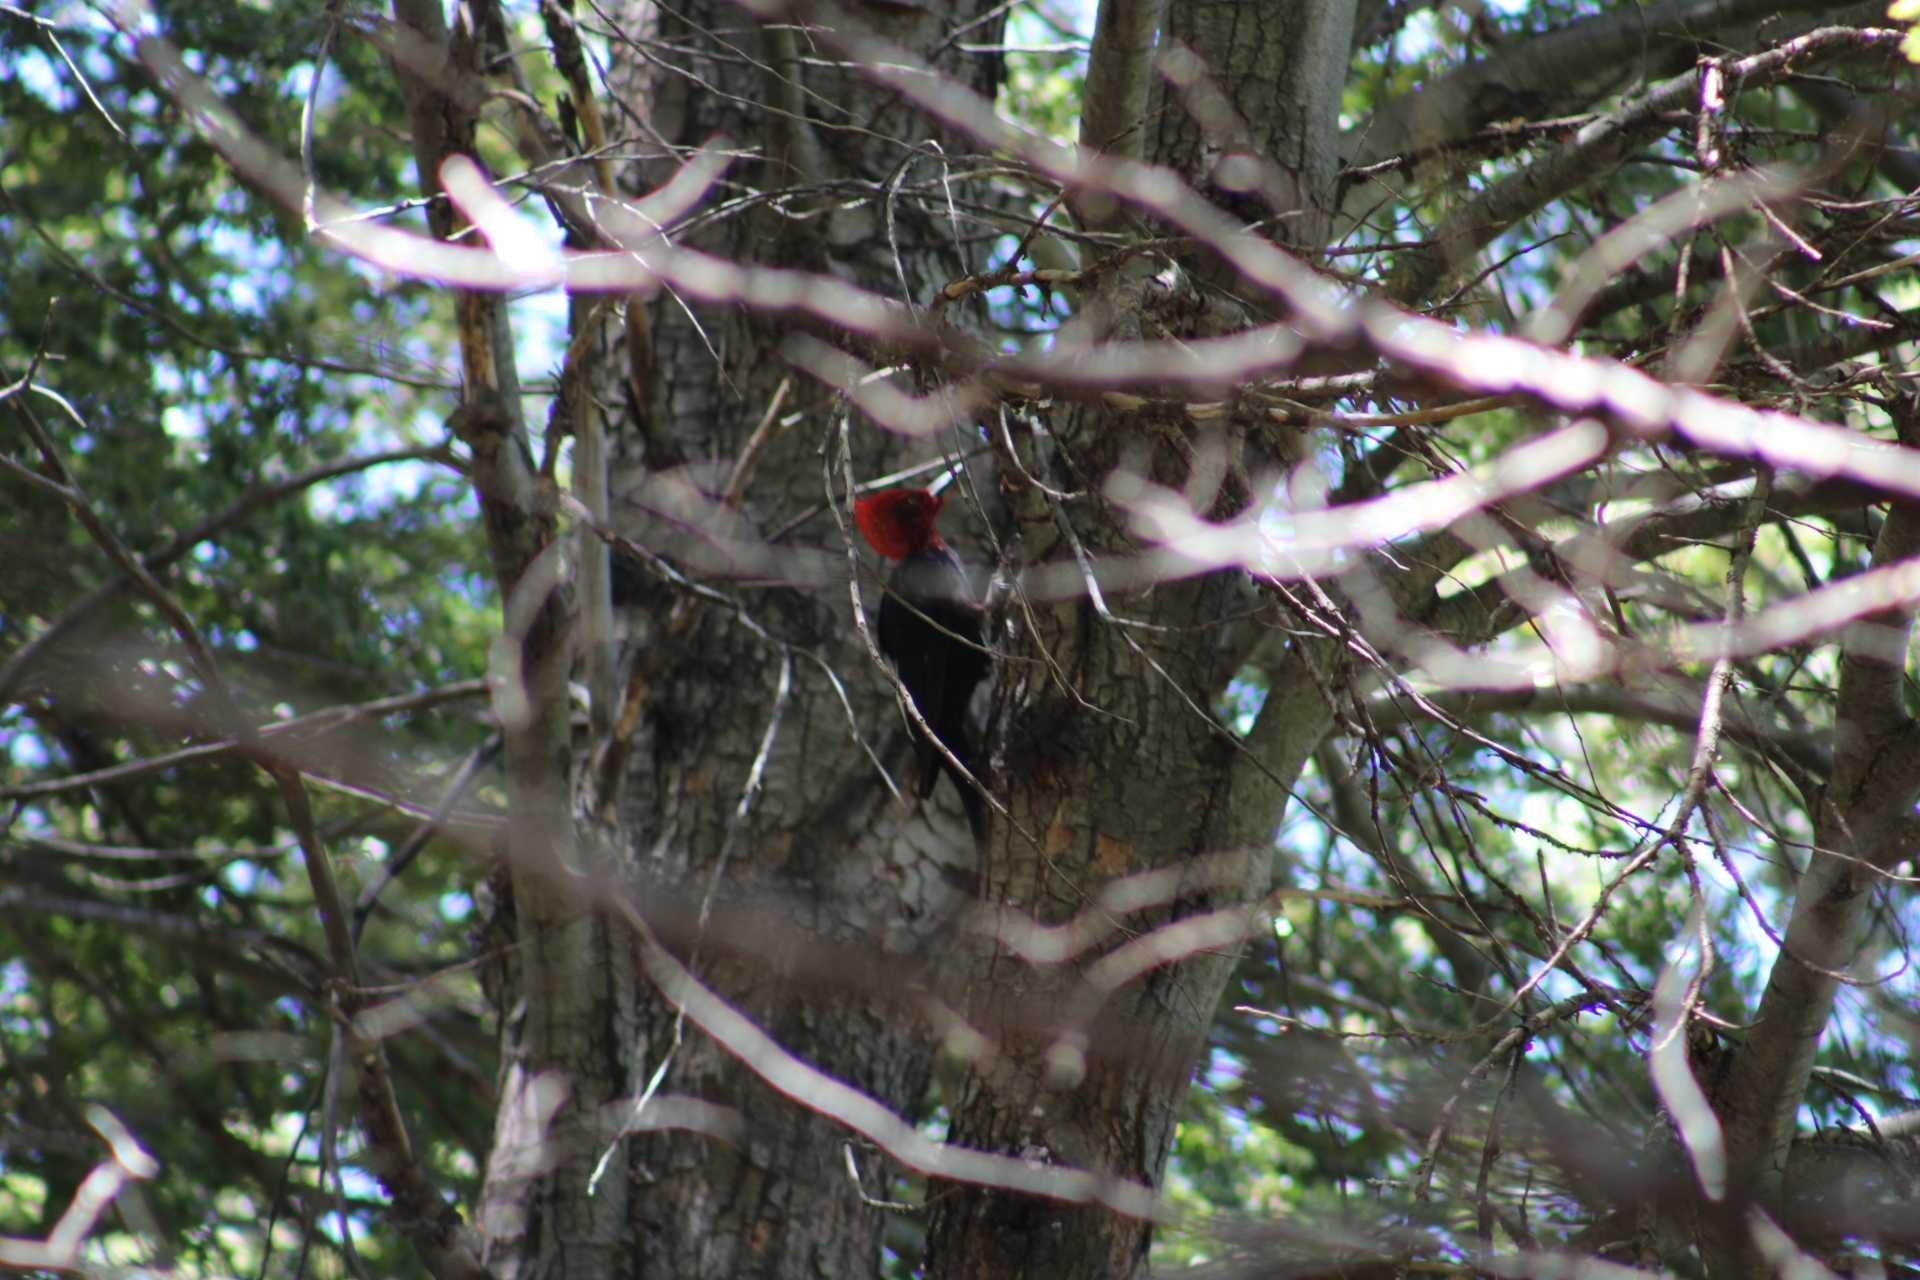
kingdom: Animalia
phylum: Chordata
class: Aves
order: Piciformes
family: Picidae
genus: Campephilus
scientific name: Campephilus magellanicus
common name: Magellanic woodpecker
